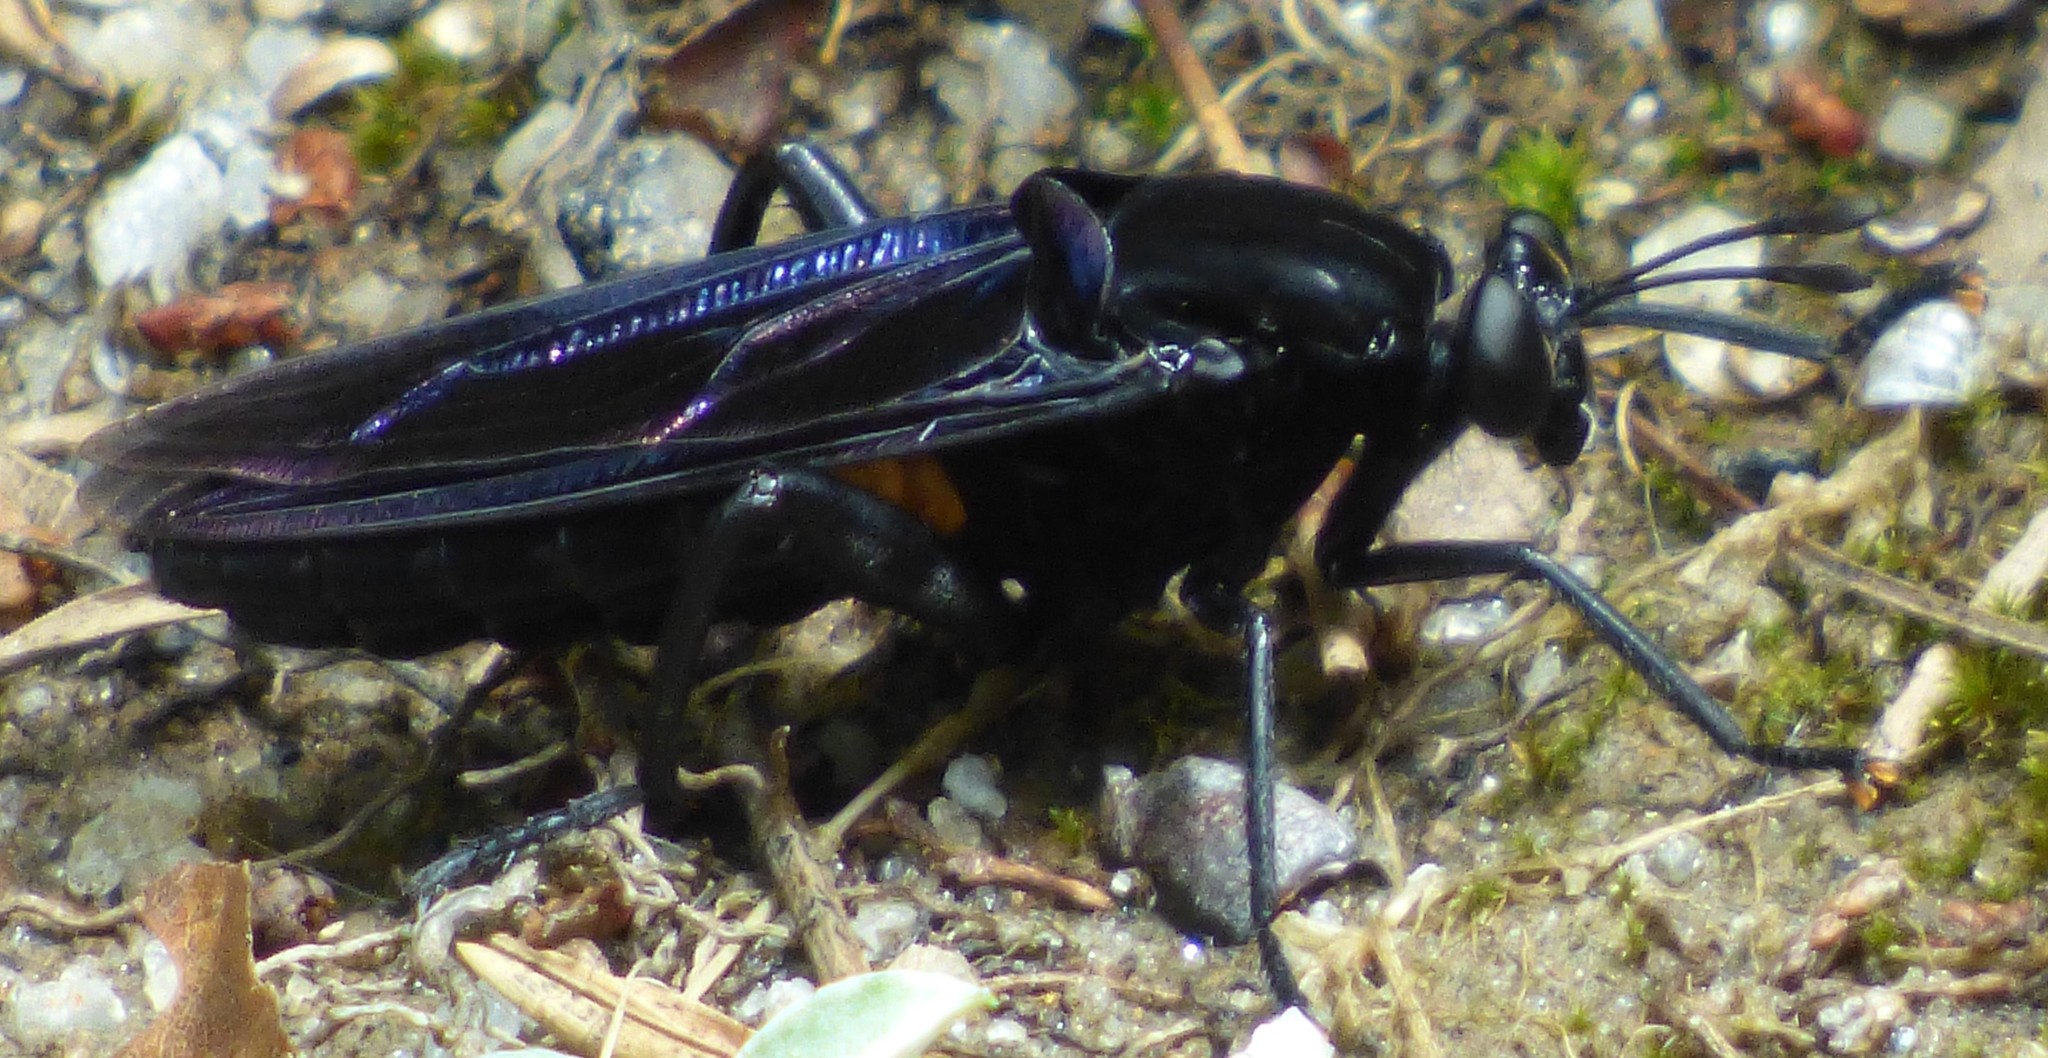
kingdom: Animalia
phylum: Arthropoda
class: Insecta
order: Diptera
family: Mydidae
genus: Mydas
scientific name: Mydas clavatus
